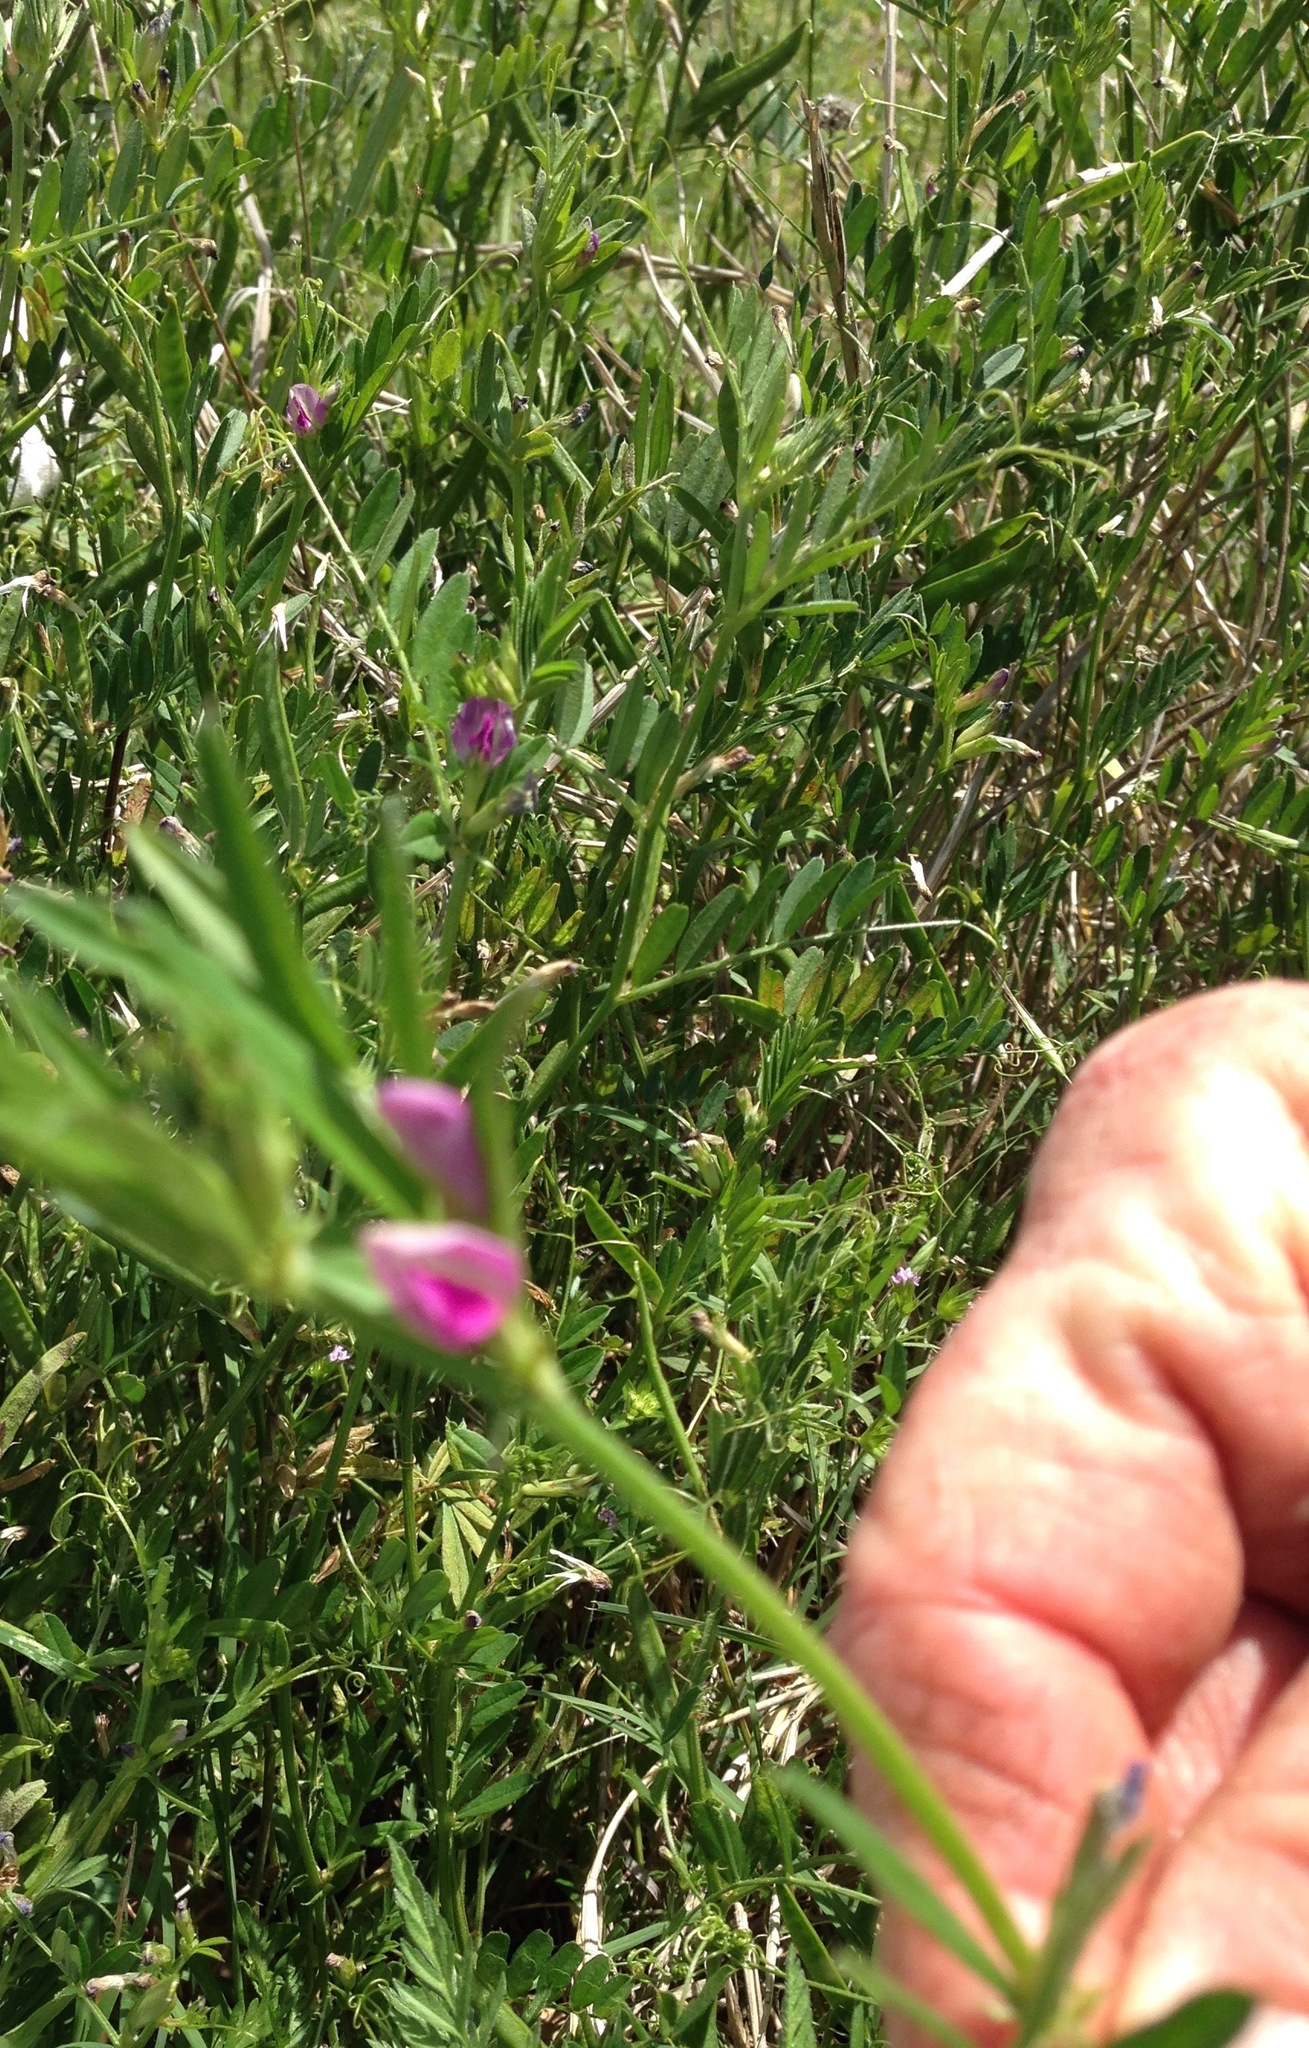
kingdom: Plantae
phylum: Tracheophyta
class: Magnoliopsida
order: Fabales
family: Fabaceae
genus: Vicia
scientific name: Vicia sativa
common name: Garden vetch
